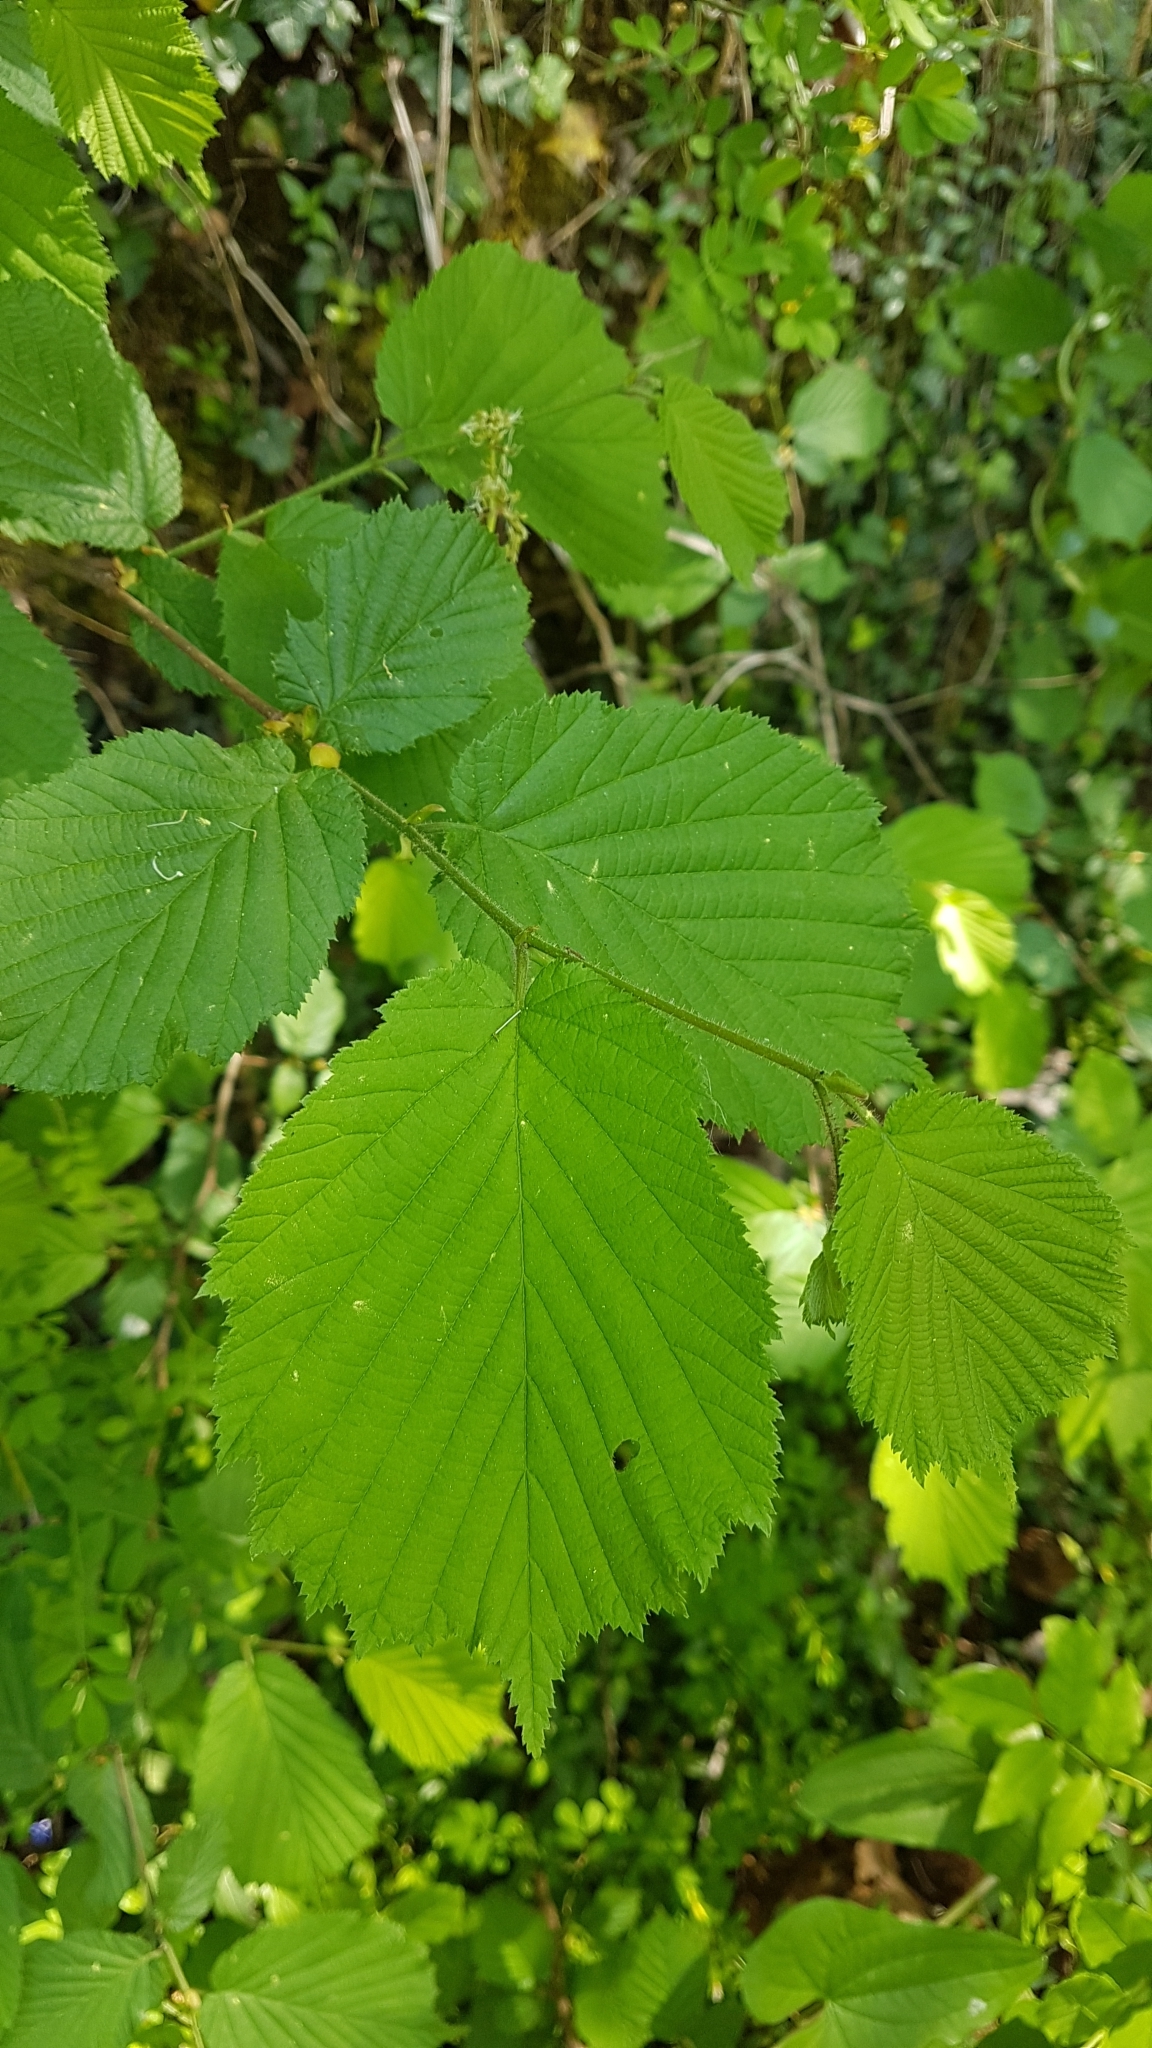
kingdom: Plantae
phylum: Tracheophyta
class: Magnoliopsida
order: Fagales
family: Betulaceae
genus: Corylus
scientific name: Corylus avellana
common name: European hazel
